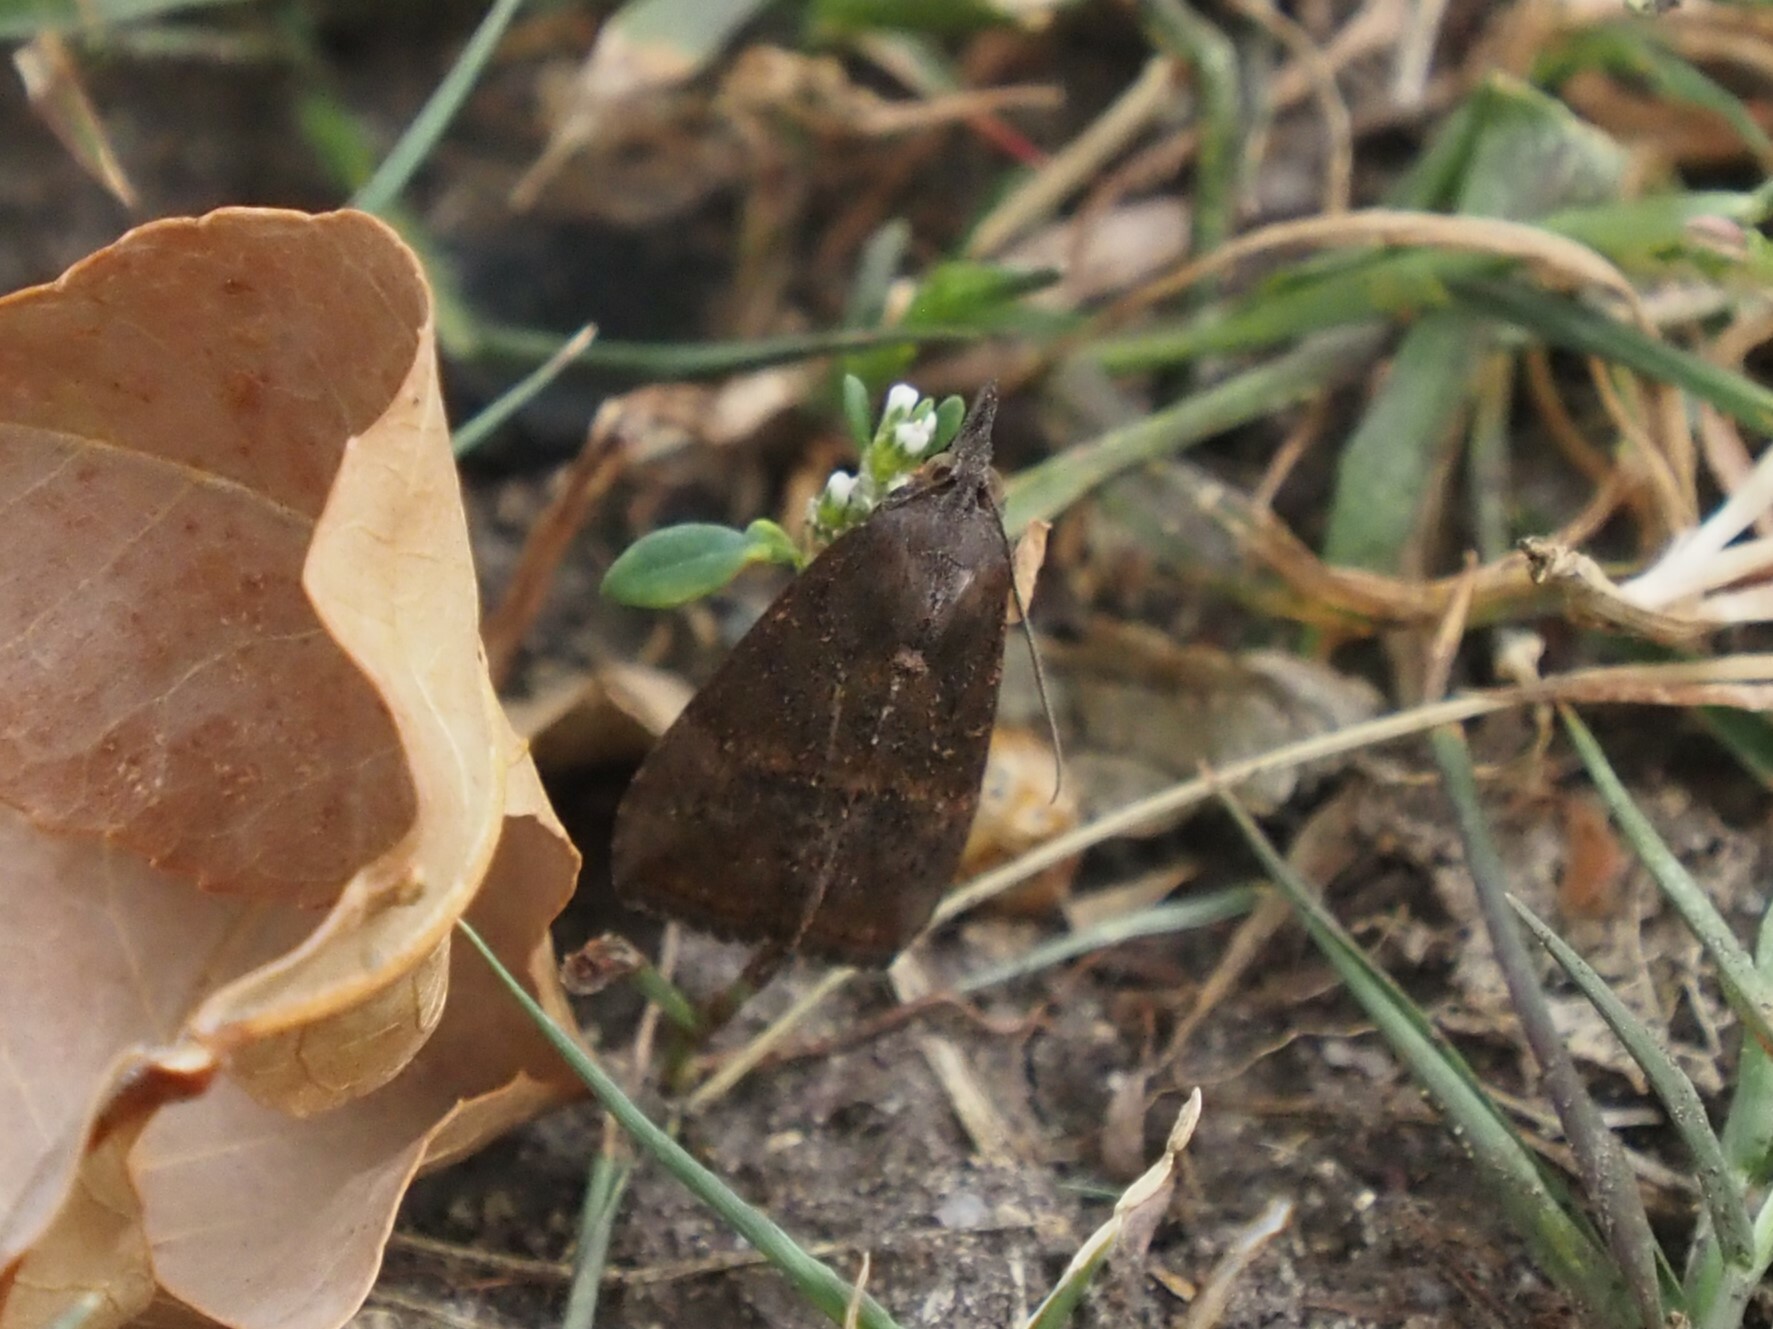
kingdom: Animalia
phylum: Arthropoda
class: Insecta
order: Lepidoptera
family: Erebidae
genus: Hypena
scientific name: Hypena scabra
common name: Green cloverworm
